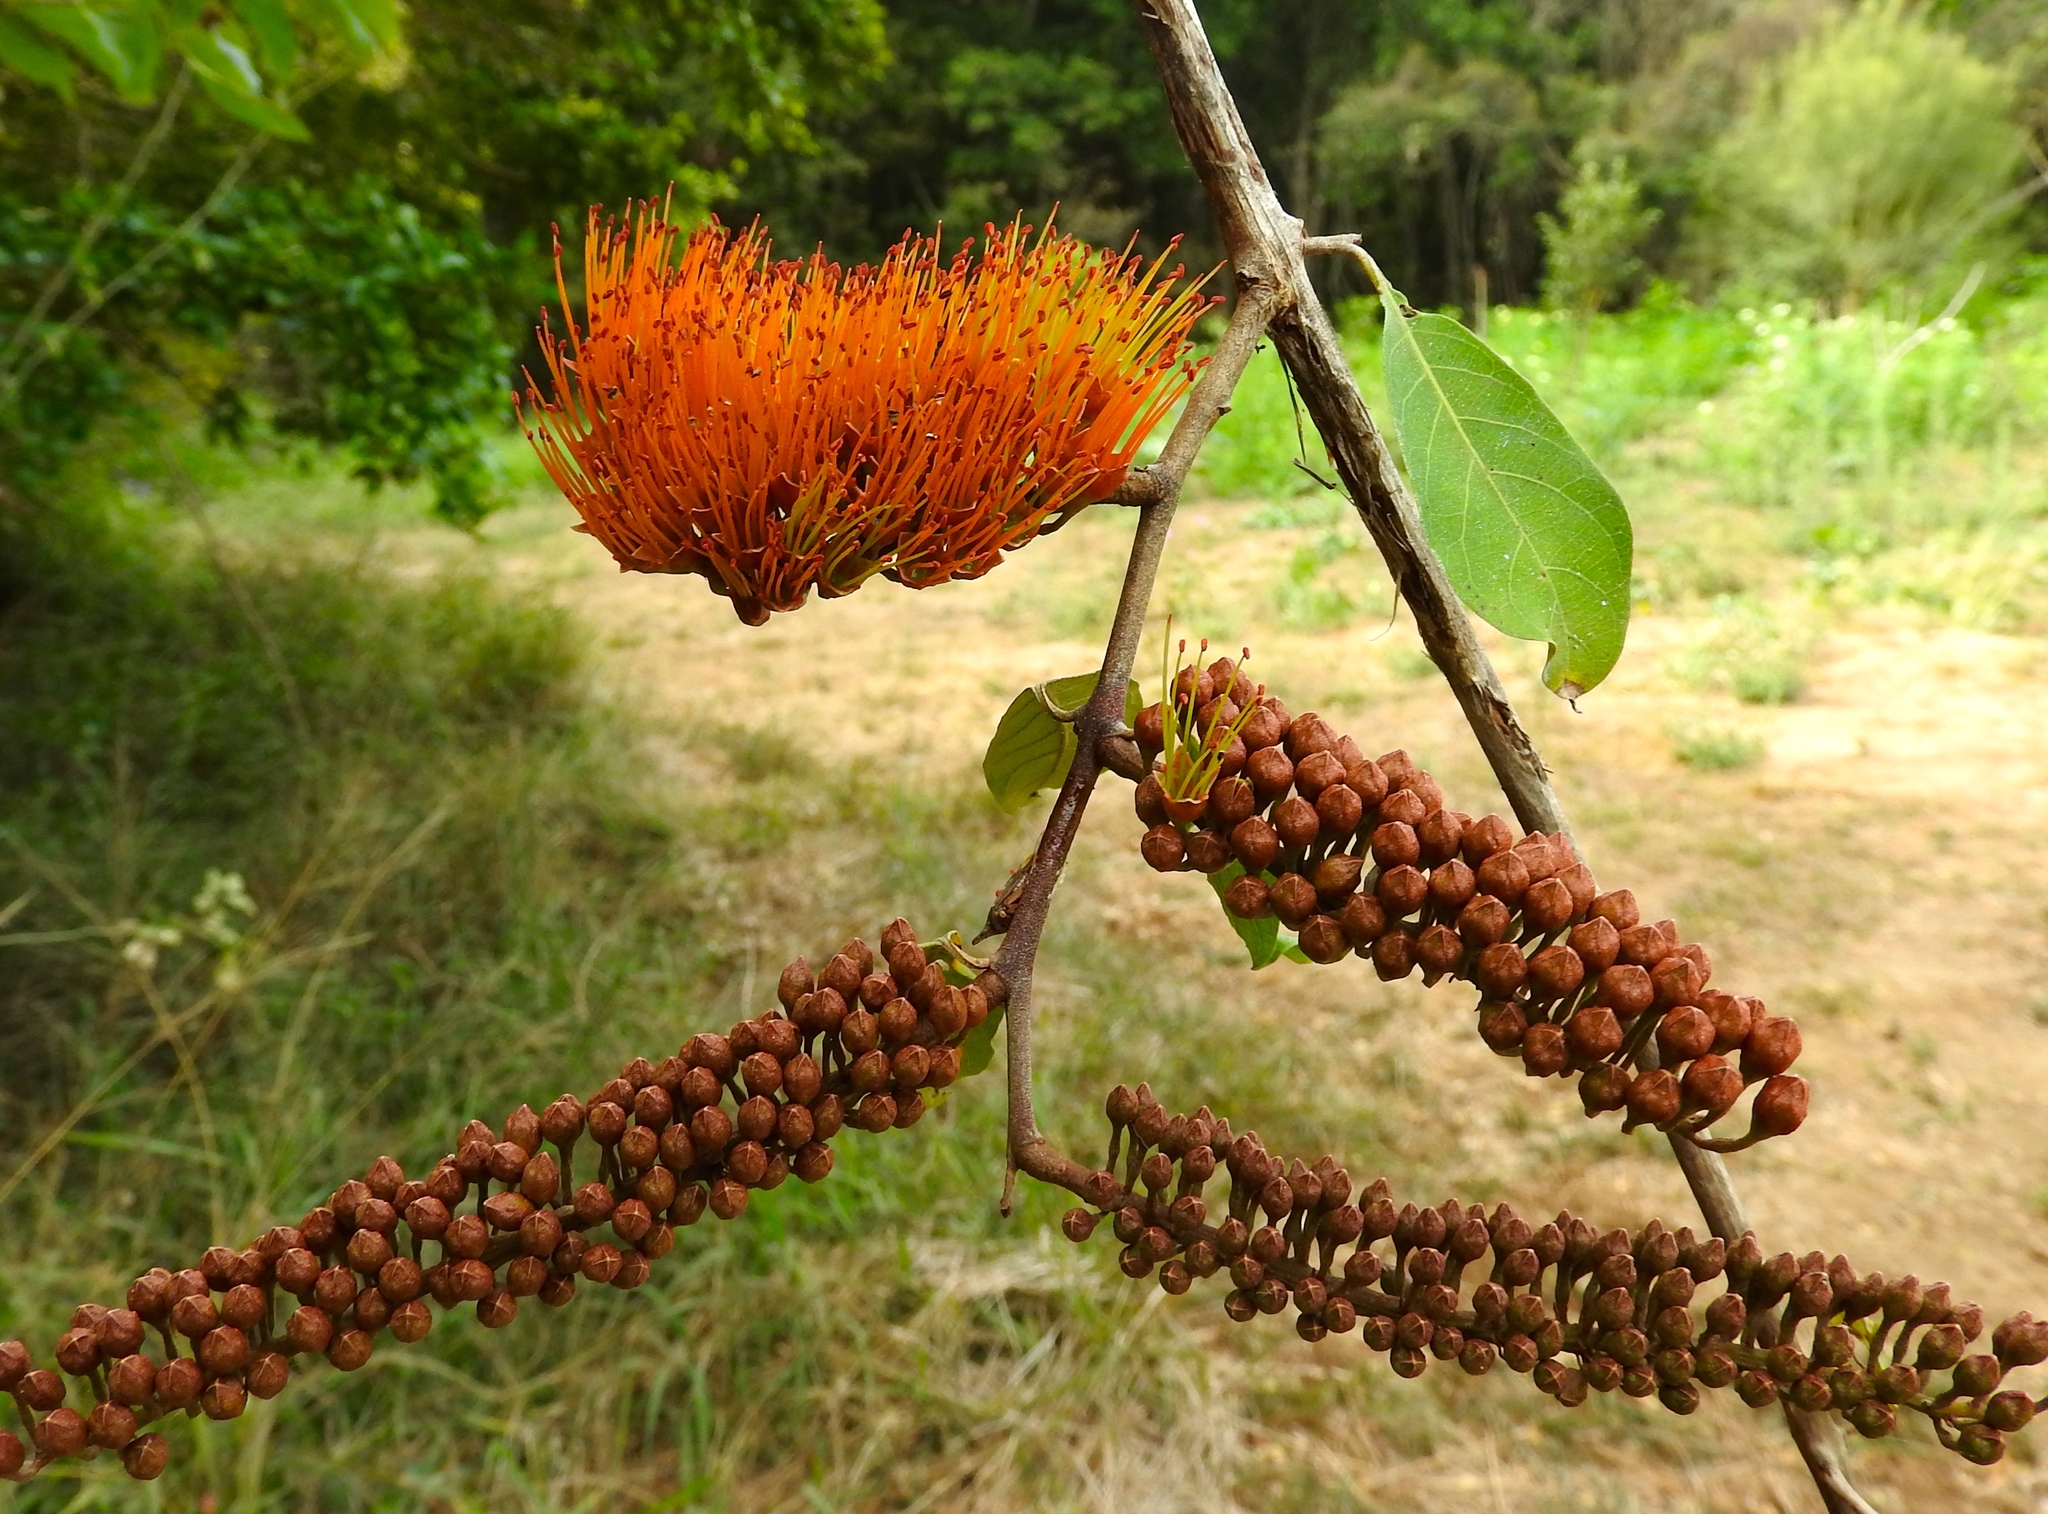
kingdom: Plantae
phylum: Tracheophyta
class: Magnoliopsida
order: Myrtales
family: Combretaceae
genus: Combretum
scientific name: Combretum farinosum
